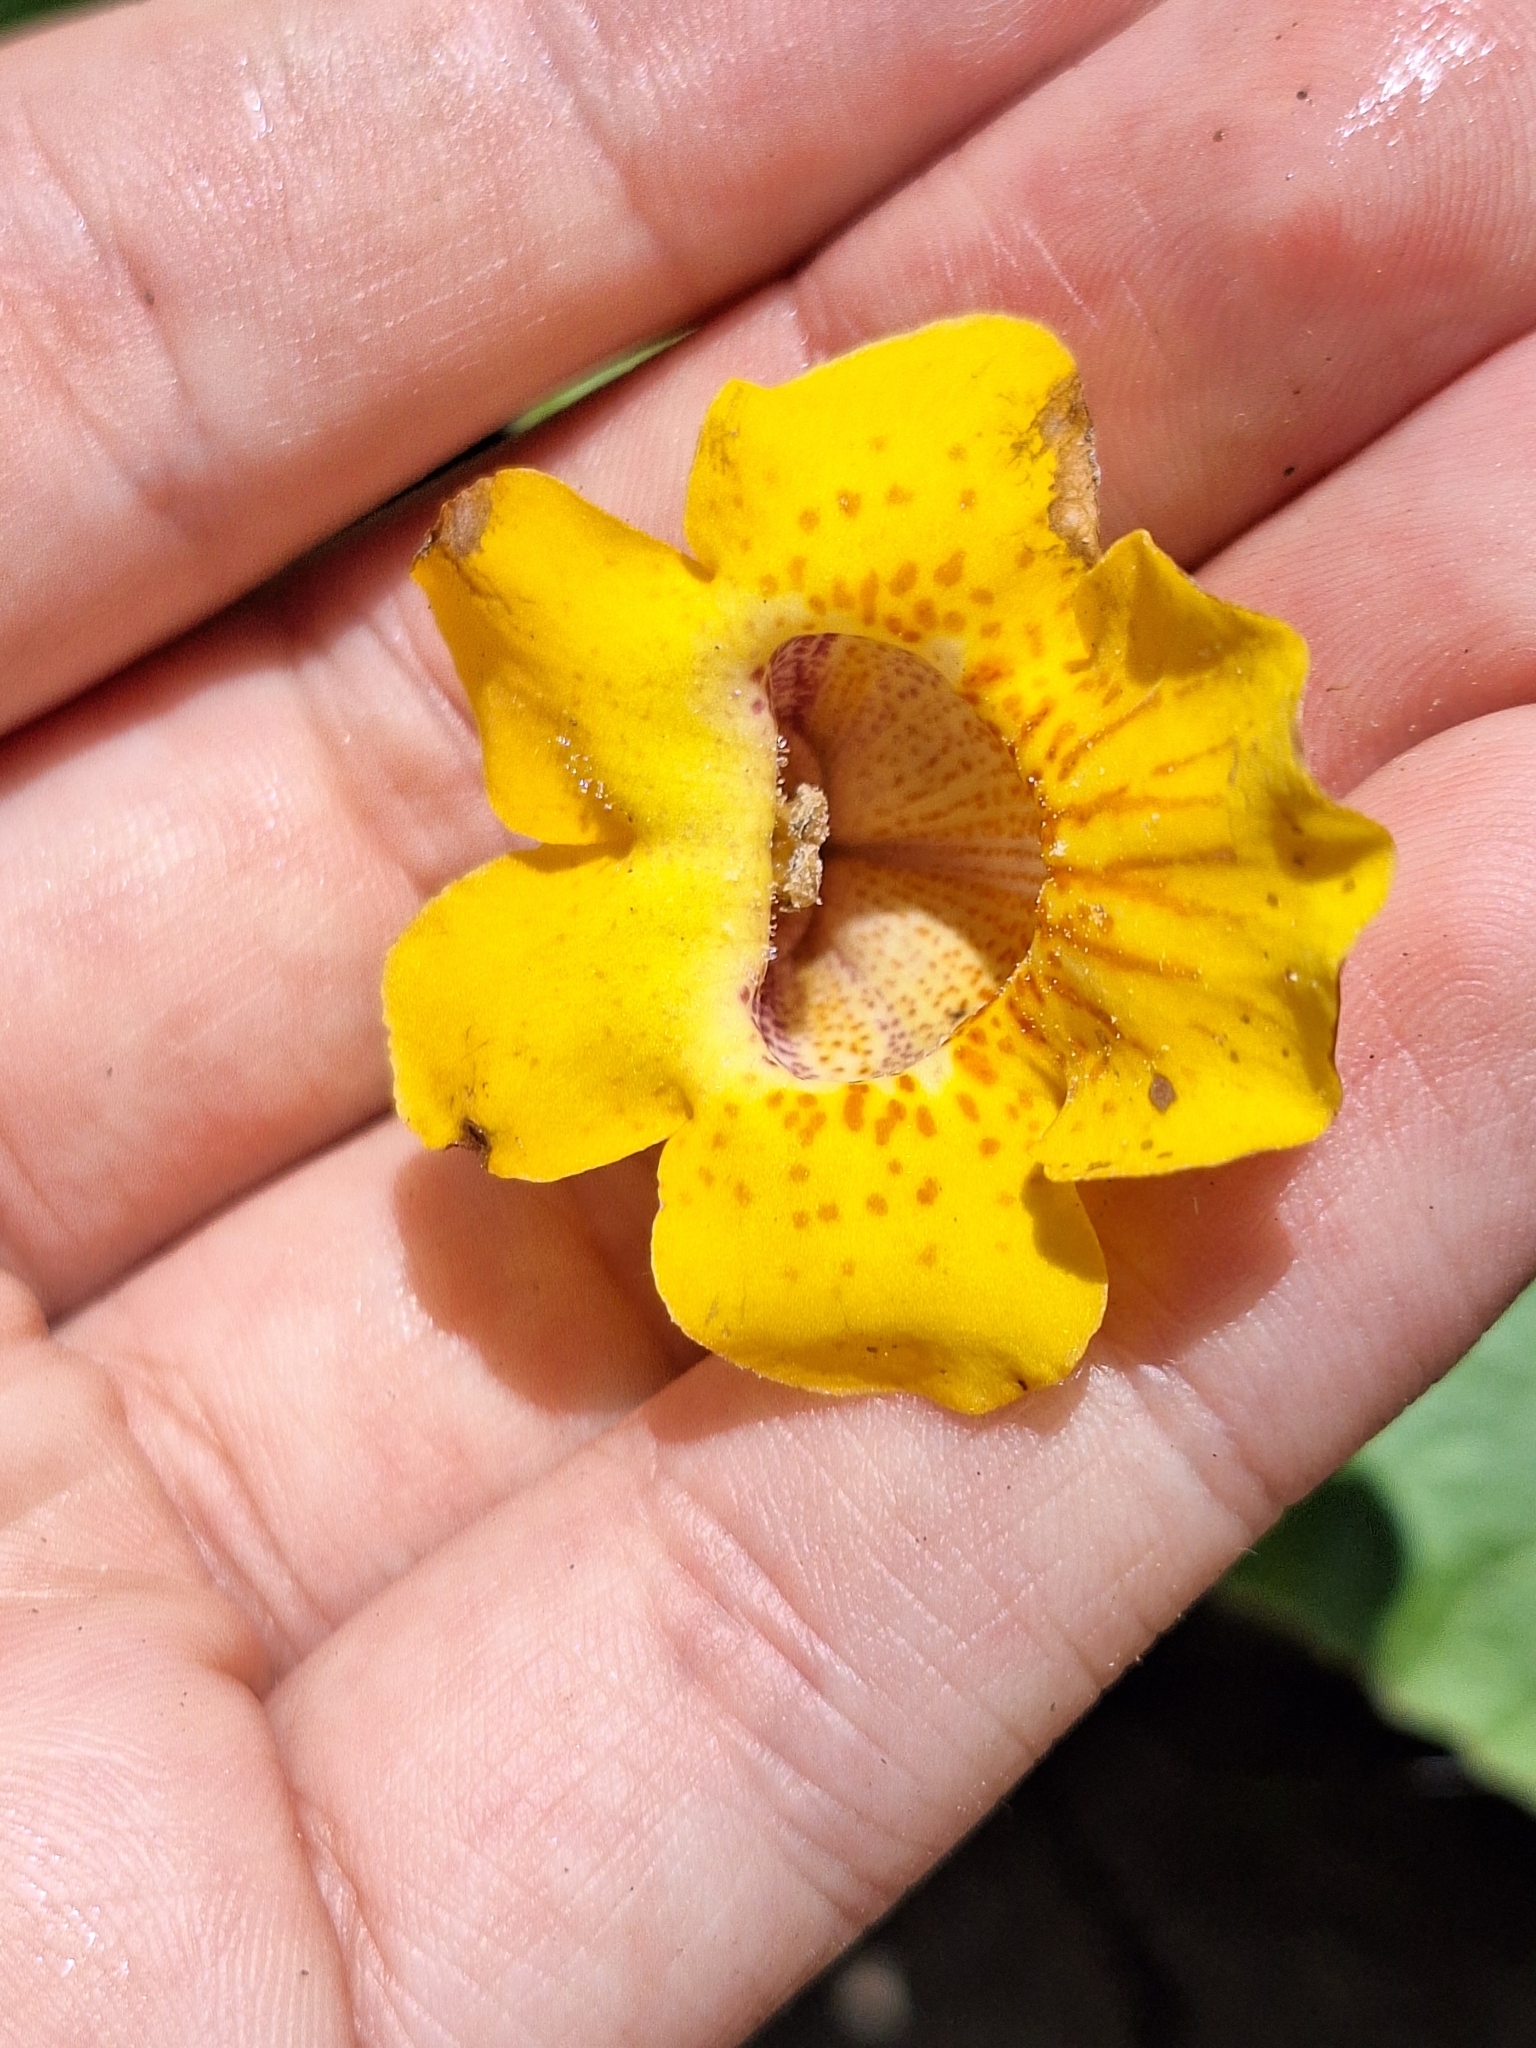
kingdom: Plantae
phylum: Tracheophyta
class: Magnoliopsida
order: Lamiales
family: Martyniaceae
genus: Ibicella
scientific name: Ibicella lutea
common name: Yellow unicorn-plant
